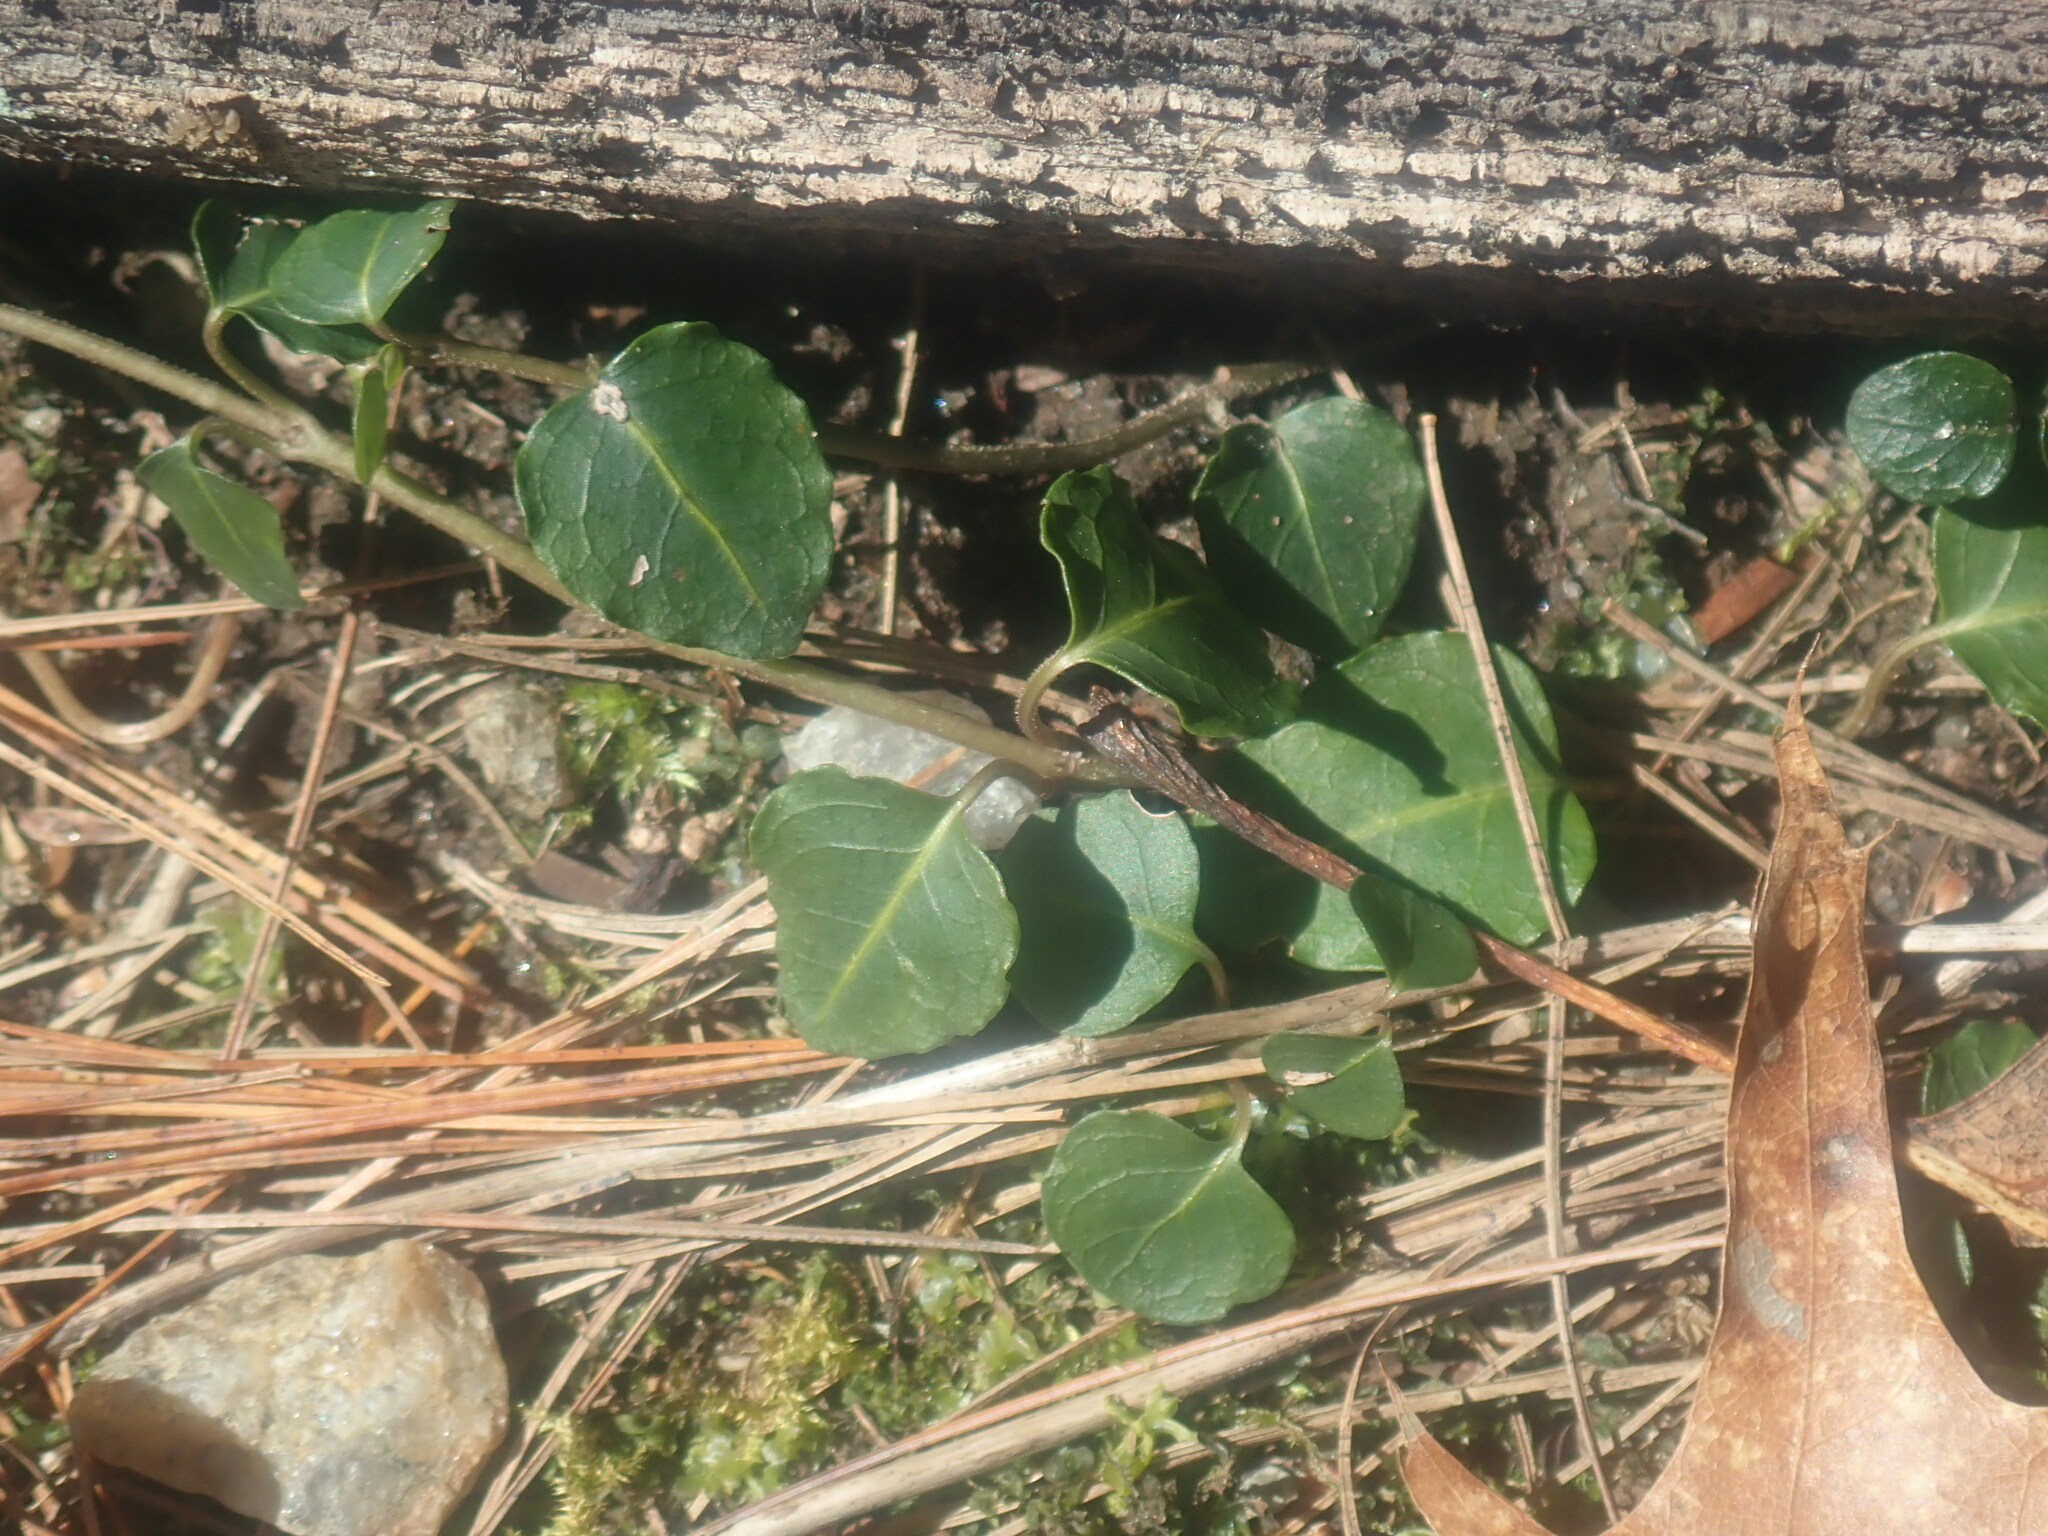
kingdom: Plantae
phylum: Tracheophyta
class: Magnoliopsida
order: Gentianales
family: Rubiaceae
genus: Mitchella
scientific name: Mitchella repens
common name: Partridge-berry
